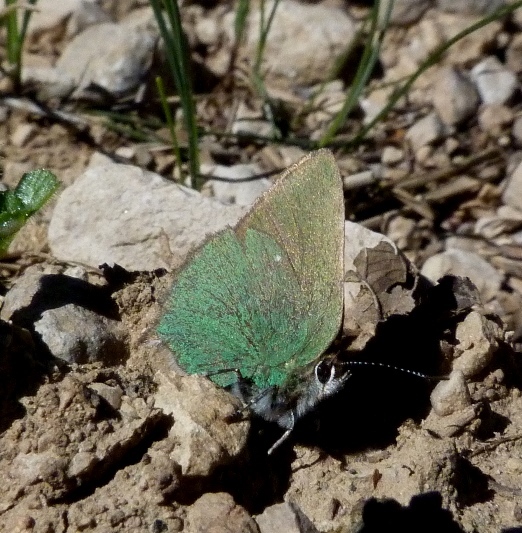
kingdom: Animalia
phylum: Arthropoda
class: Insecta
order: Lepidoptera
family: Lycaenidae
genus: Callophrys
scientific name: Callophrys rubi
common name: Green hairstreak
